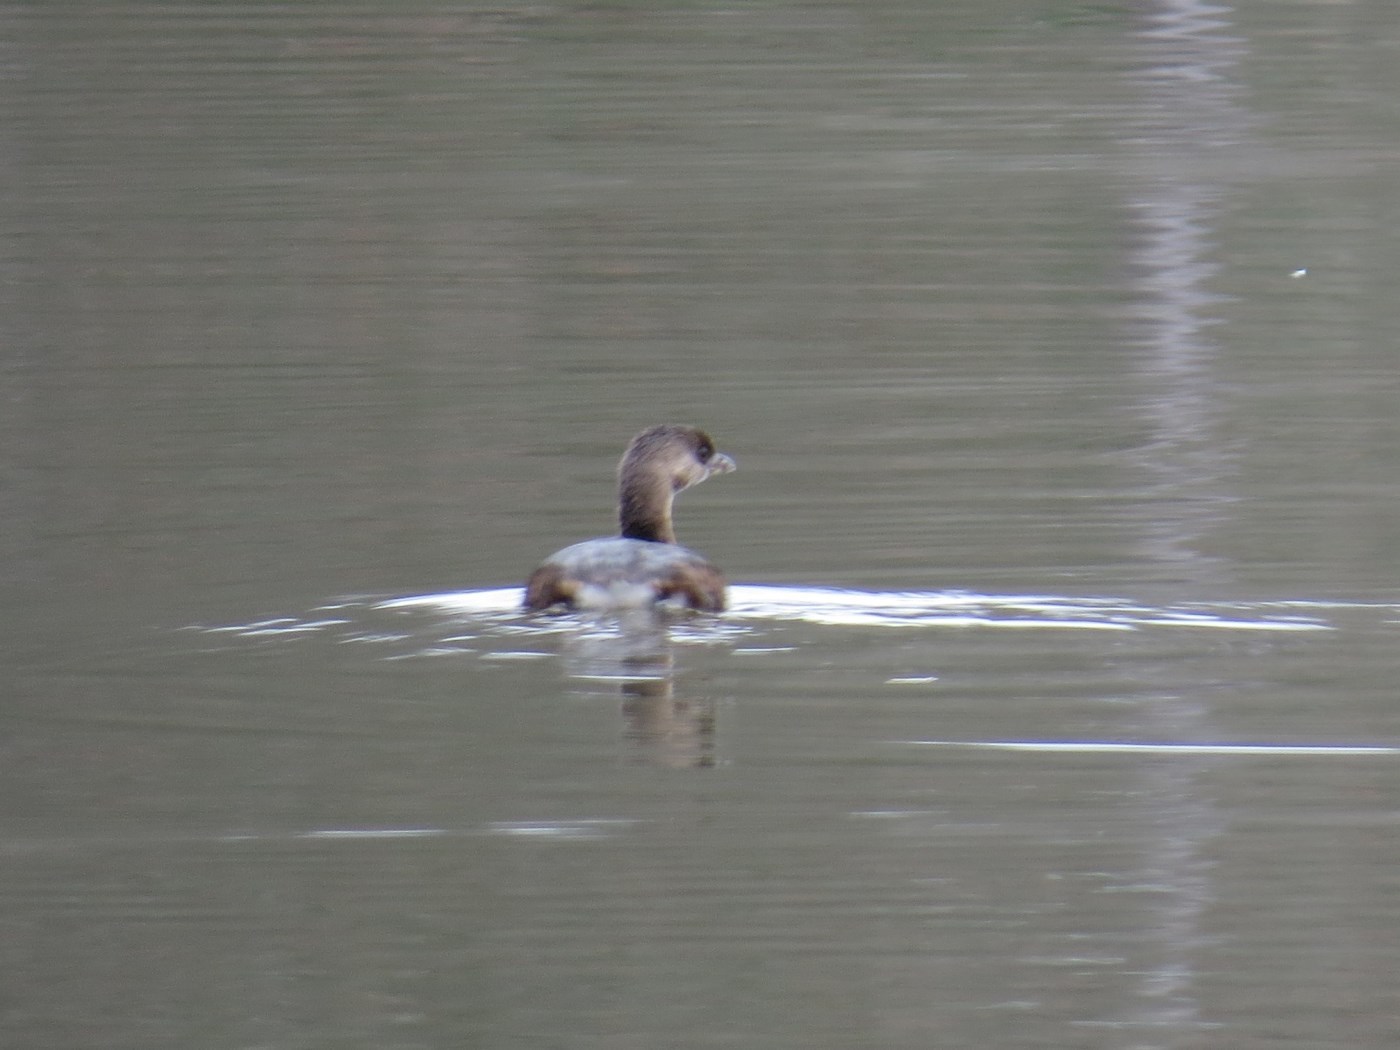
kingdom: Animalia
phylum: Chordata
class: Aves
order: Podicipediformes
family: Podicipedidae
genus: Podilymbus
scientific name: Podilymbus podiceps
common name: Pied-billed grebe
